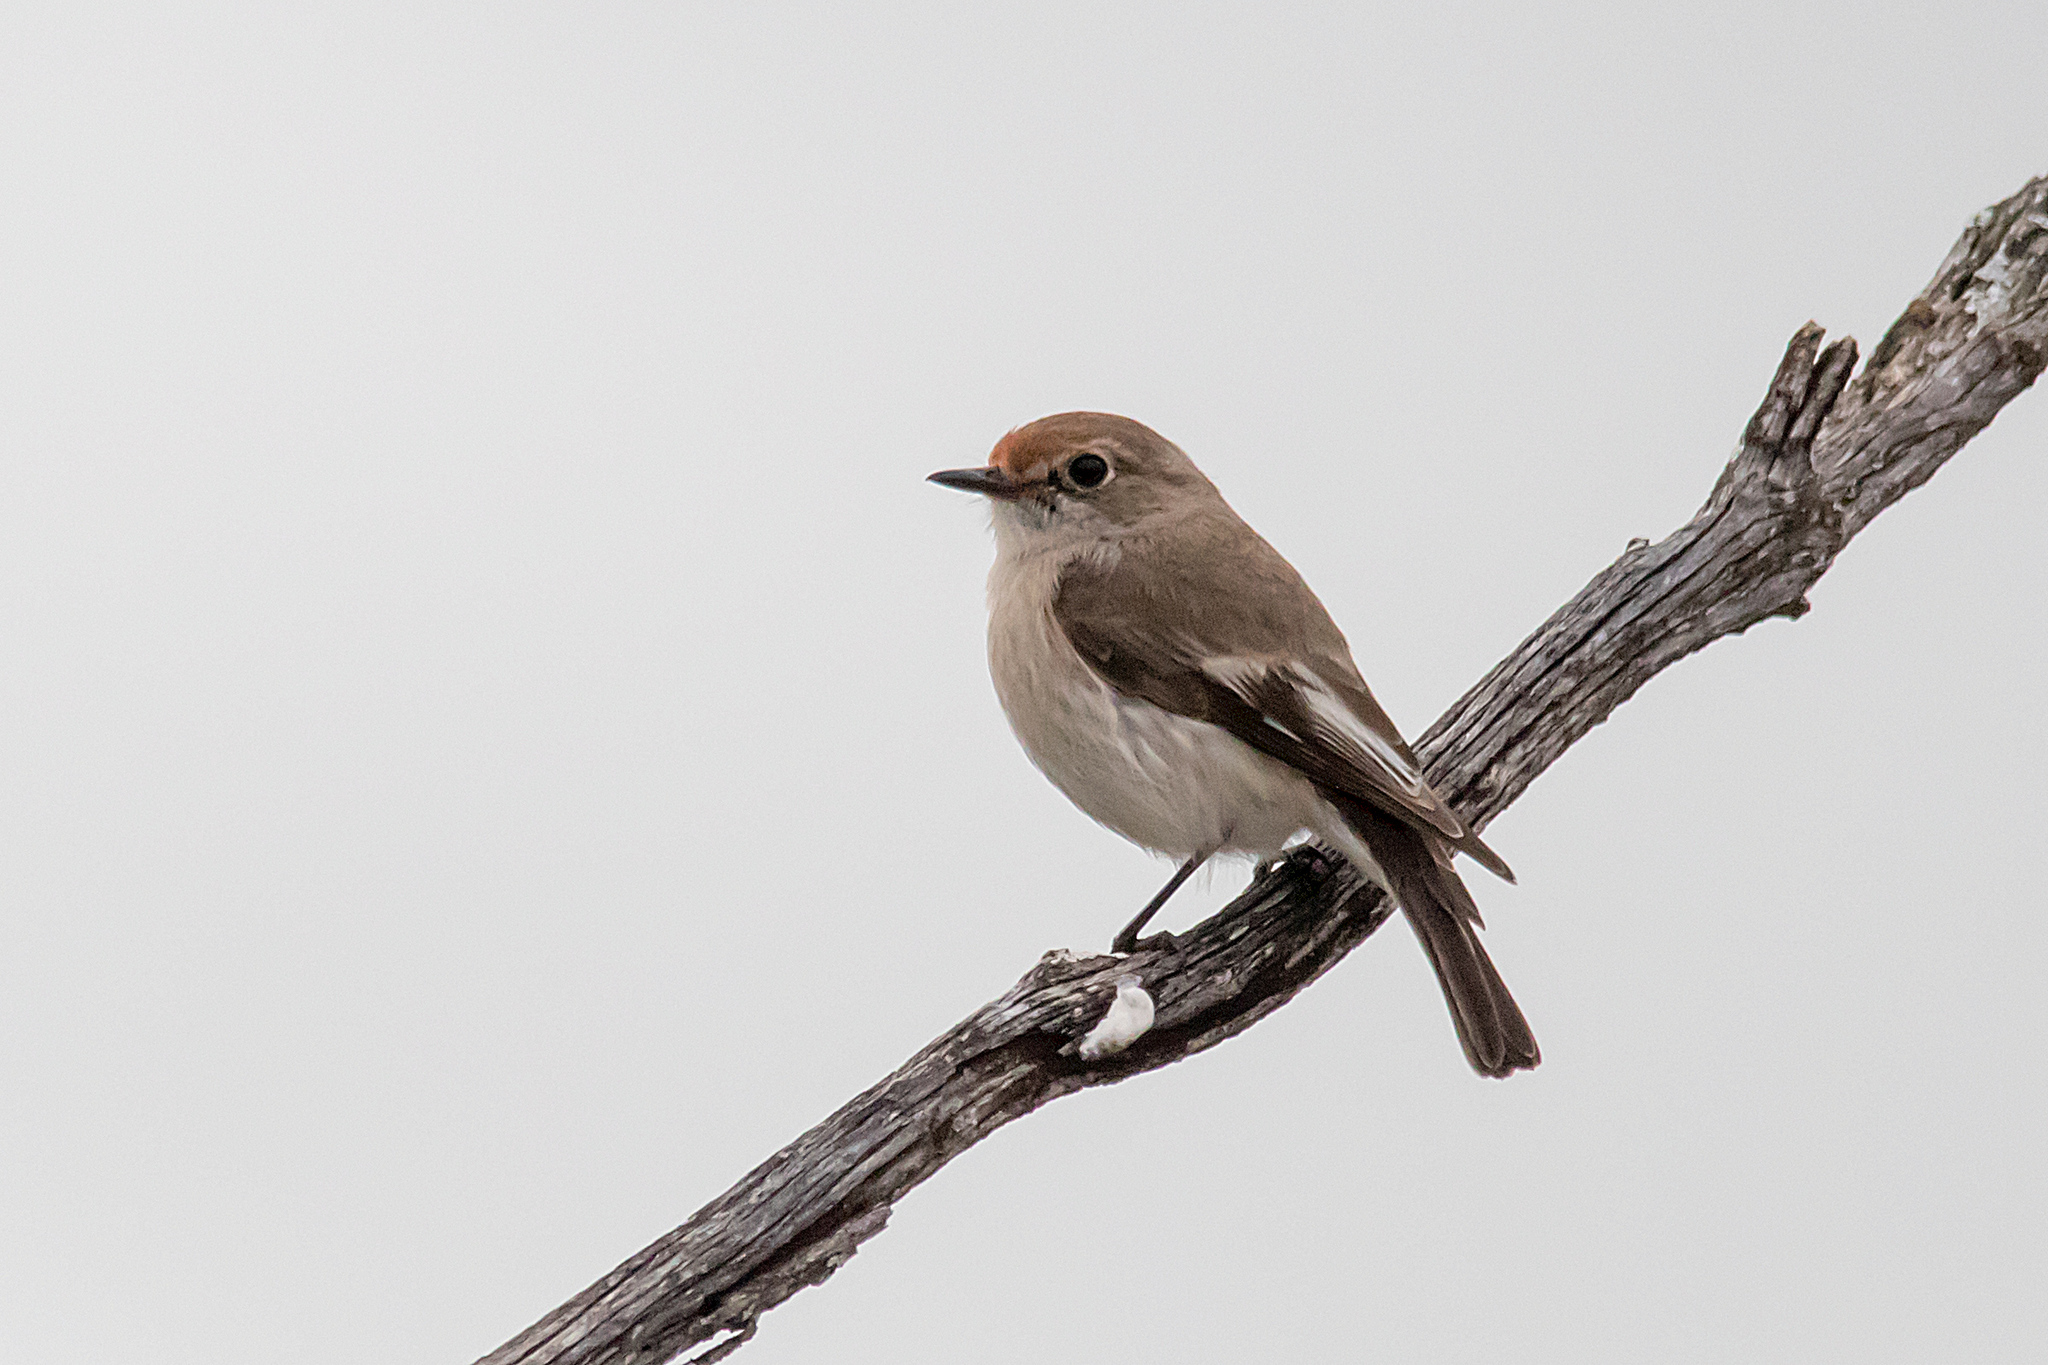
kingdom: Animalia
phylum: Chordata
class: Aves
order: Passeriformes
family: Petroicidae
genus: Petroica
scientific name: Petroica goodenovii
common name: Red-capped robin
